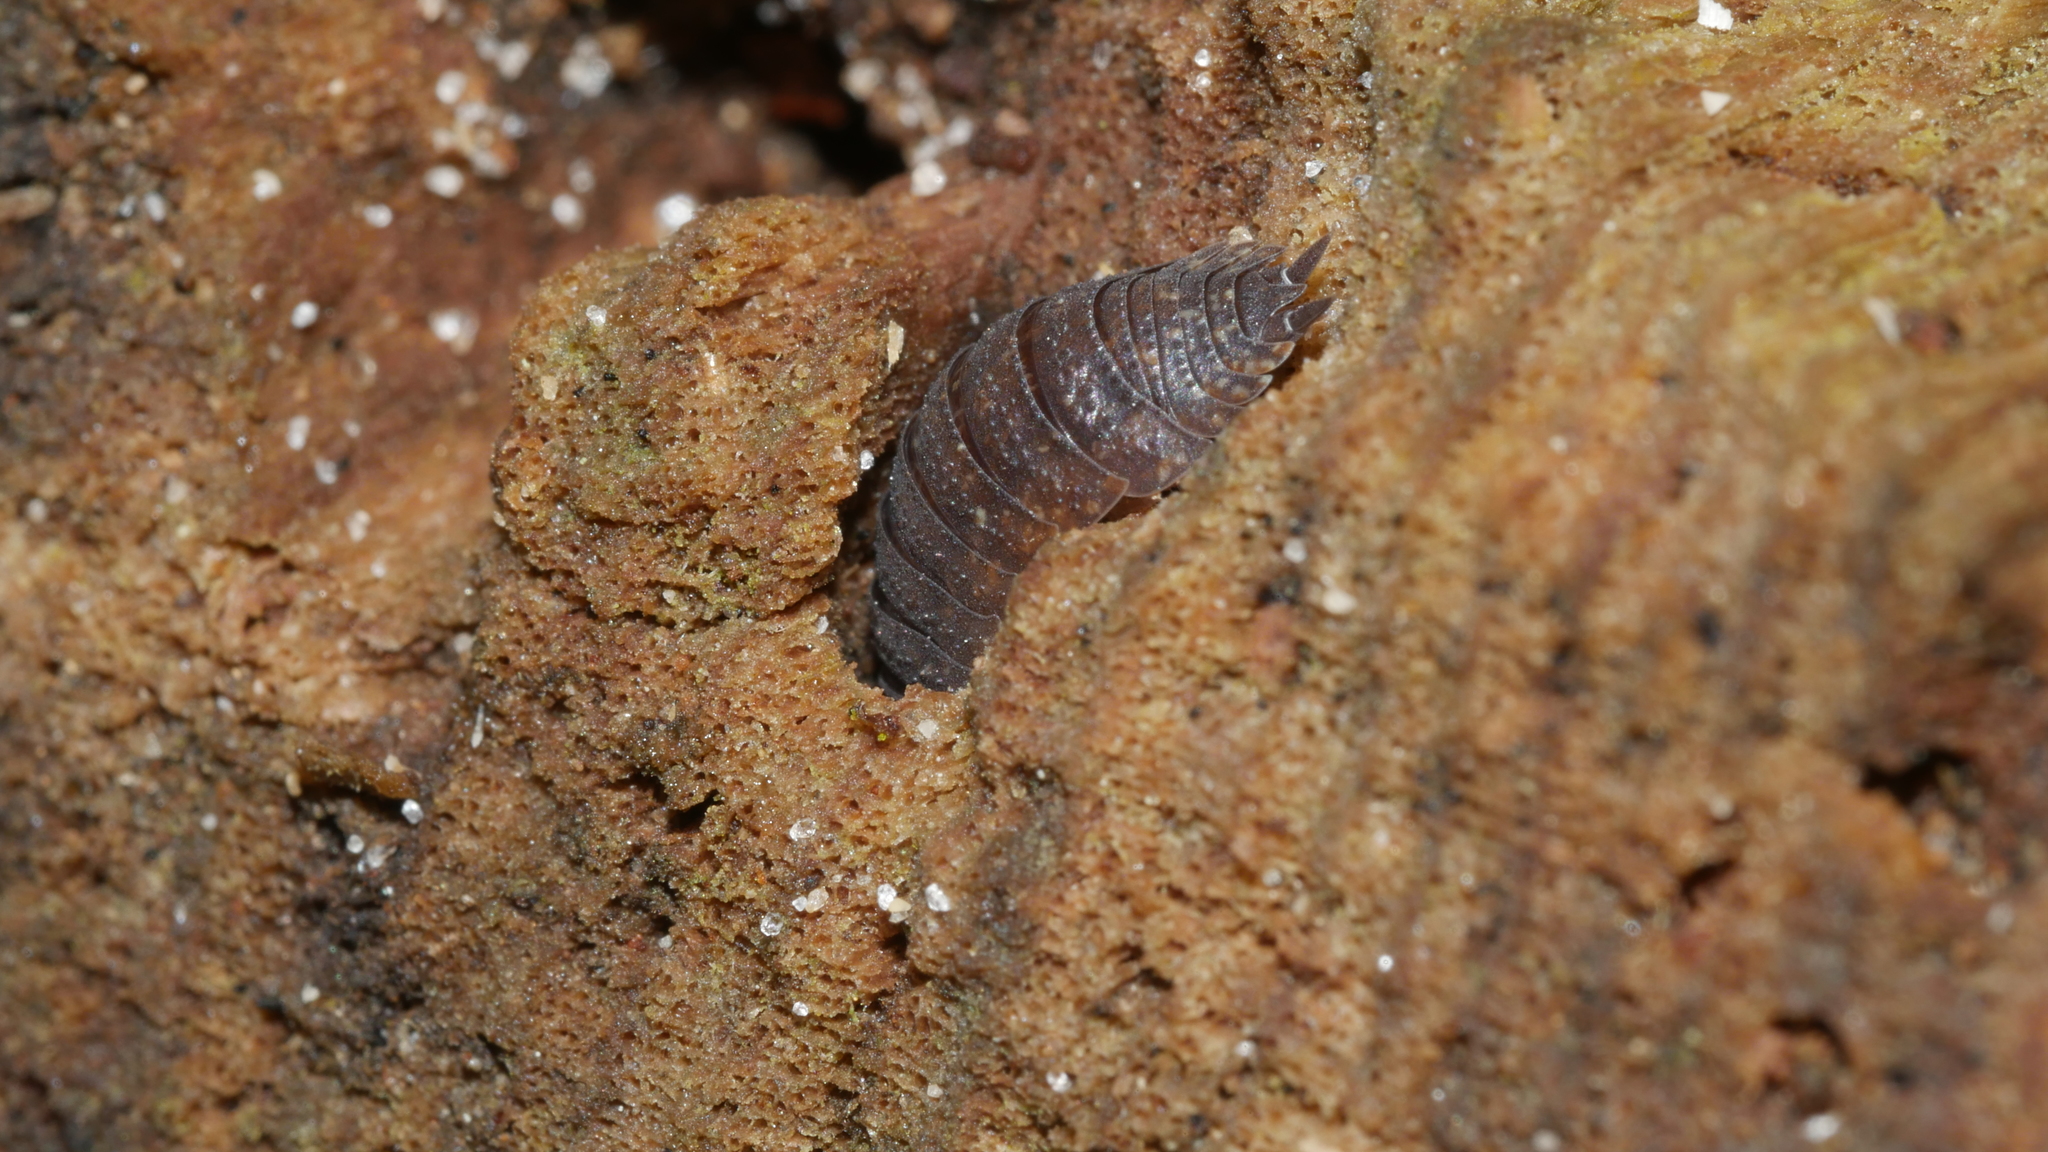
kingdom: Animalia
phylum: Arthropoda
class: Malacostraca
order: Isopoda
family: Porcellionidae
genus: Porcellio
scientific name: Porcellio scaber
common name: Common rough woodlouse
